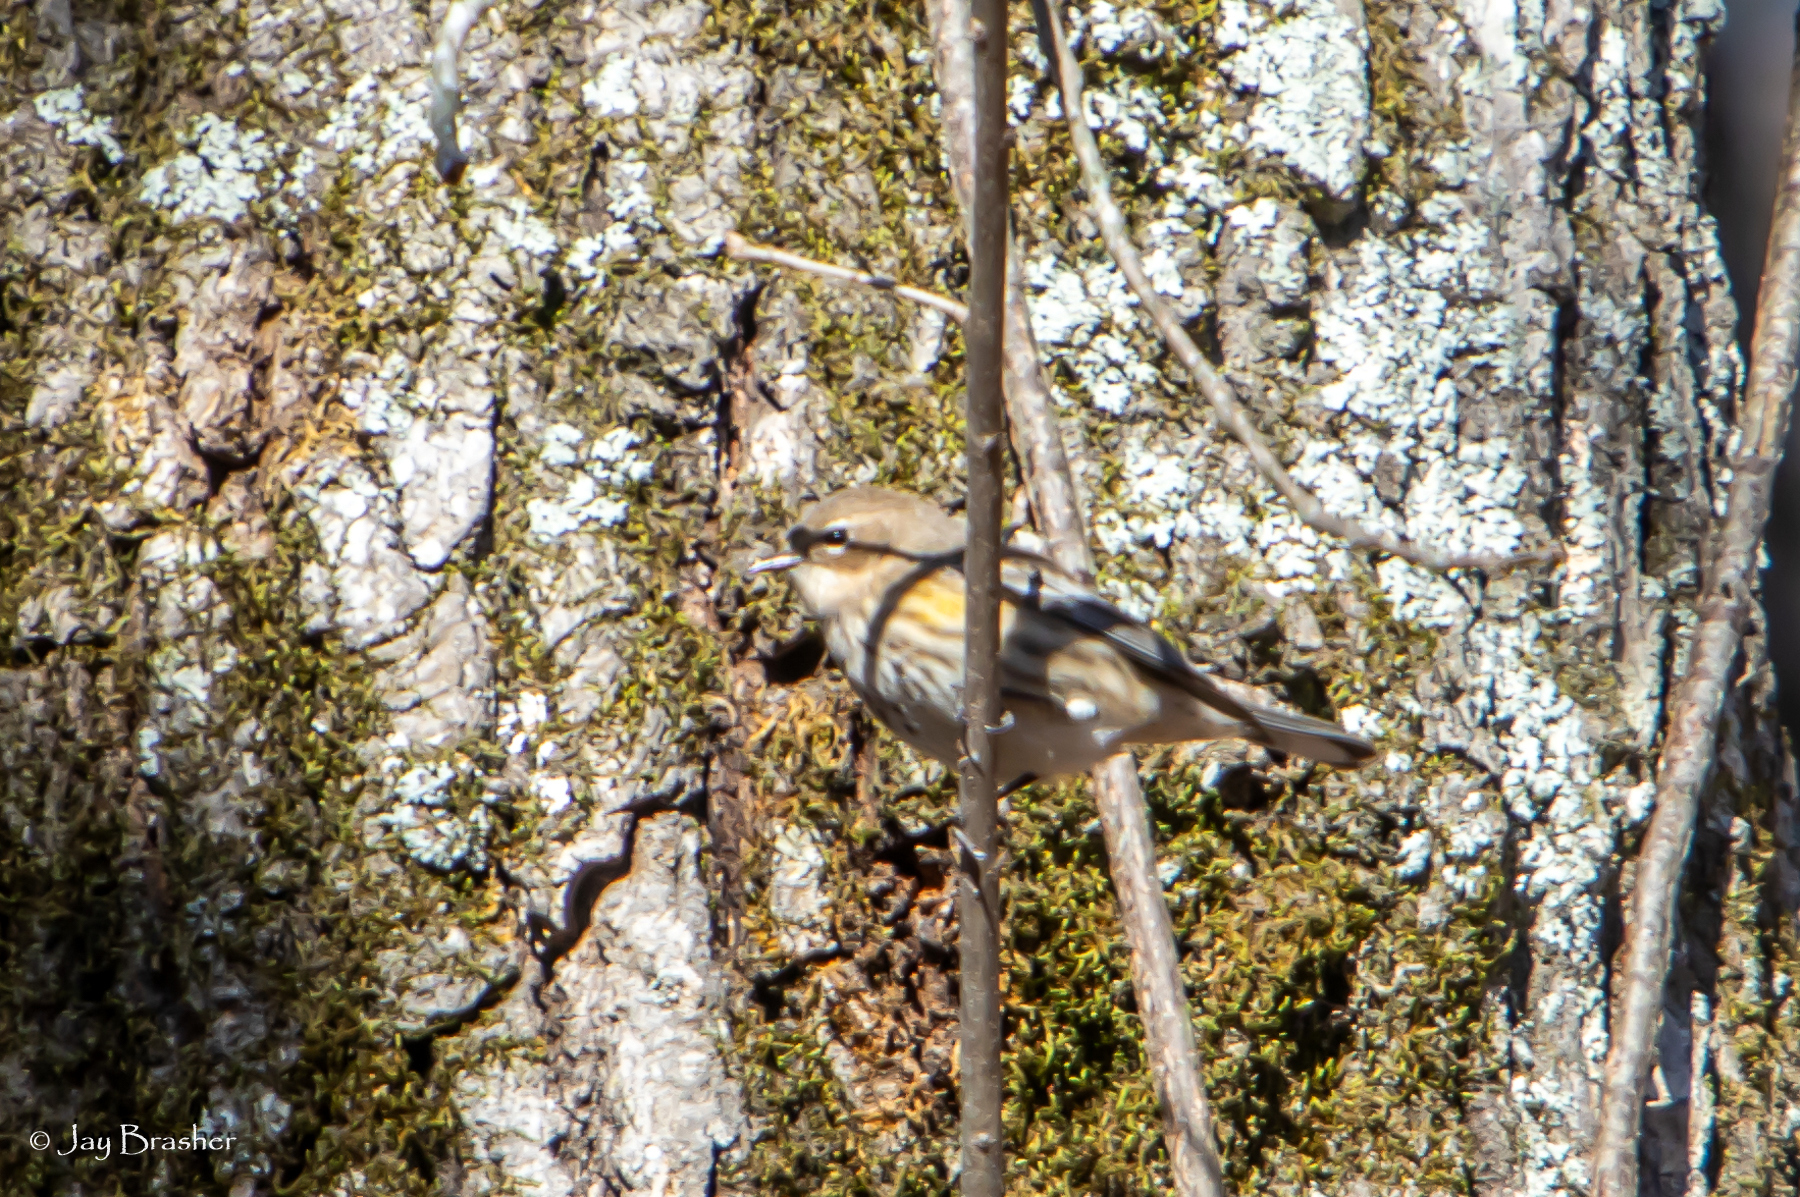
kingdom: Animalia
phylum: Chordata
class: Aves
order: Passeriformes
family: Parulidae
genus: Setophaga
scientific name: Setophaga coronata
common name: Myrtle warbler
